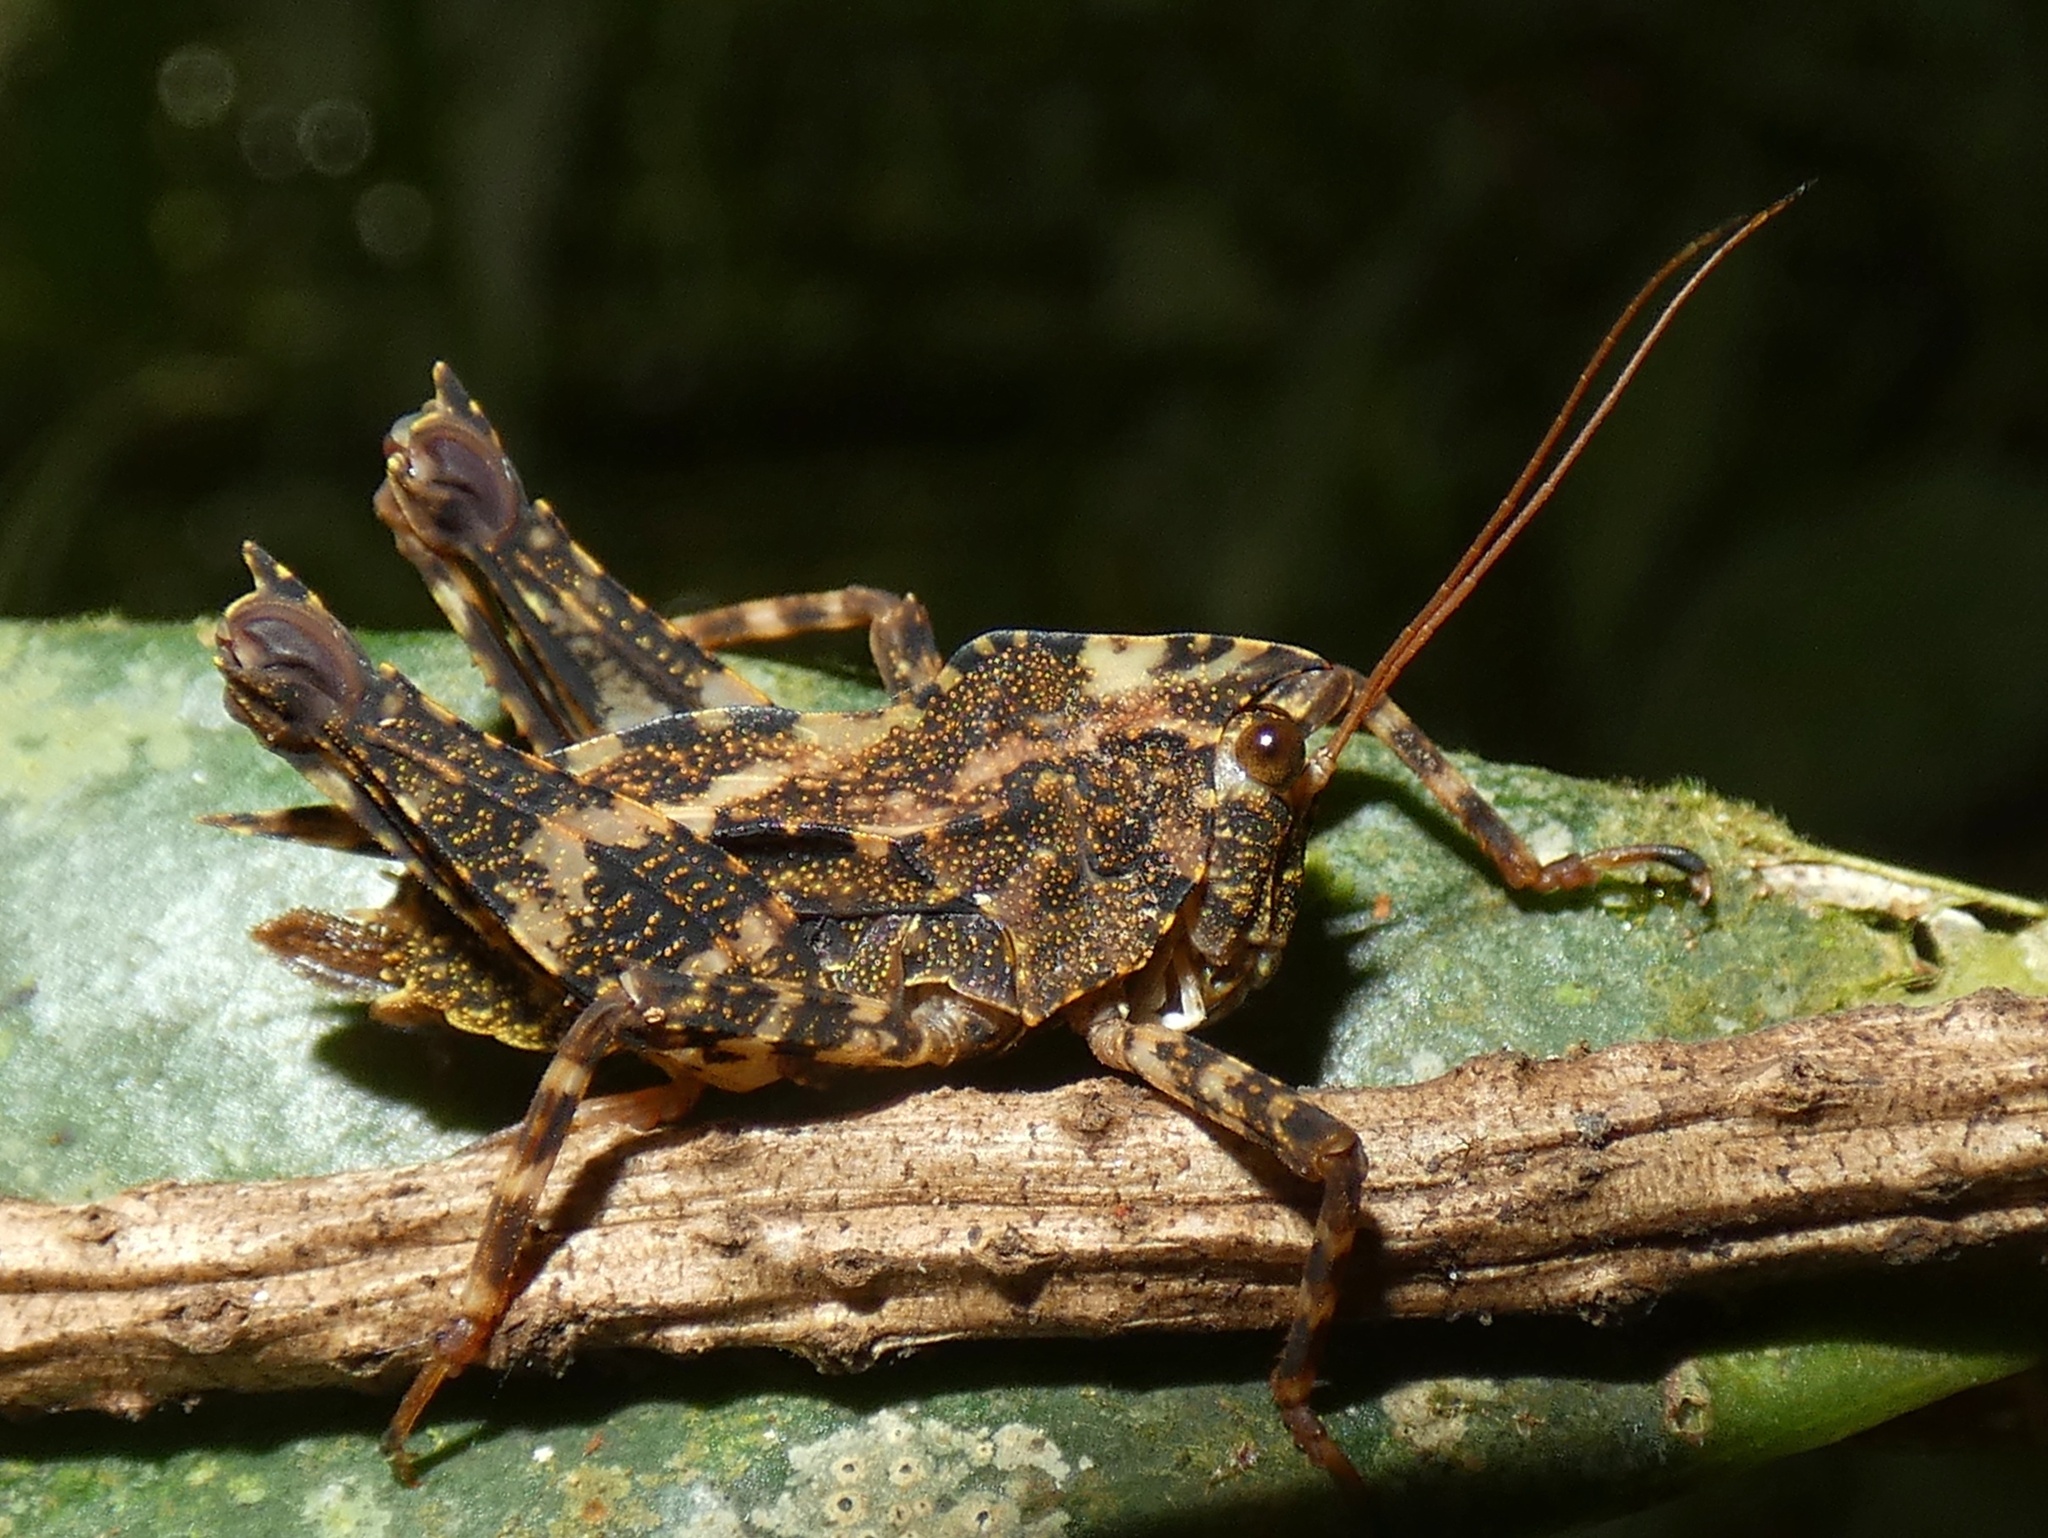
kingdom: Animalia
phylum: Arthropoda
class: Insecta
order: Orthoptera
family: Tetrigidae
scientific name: Tetrigidae
